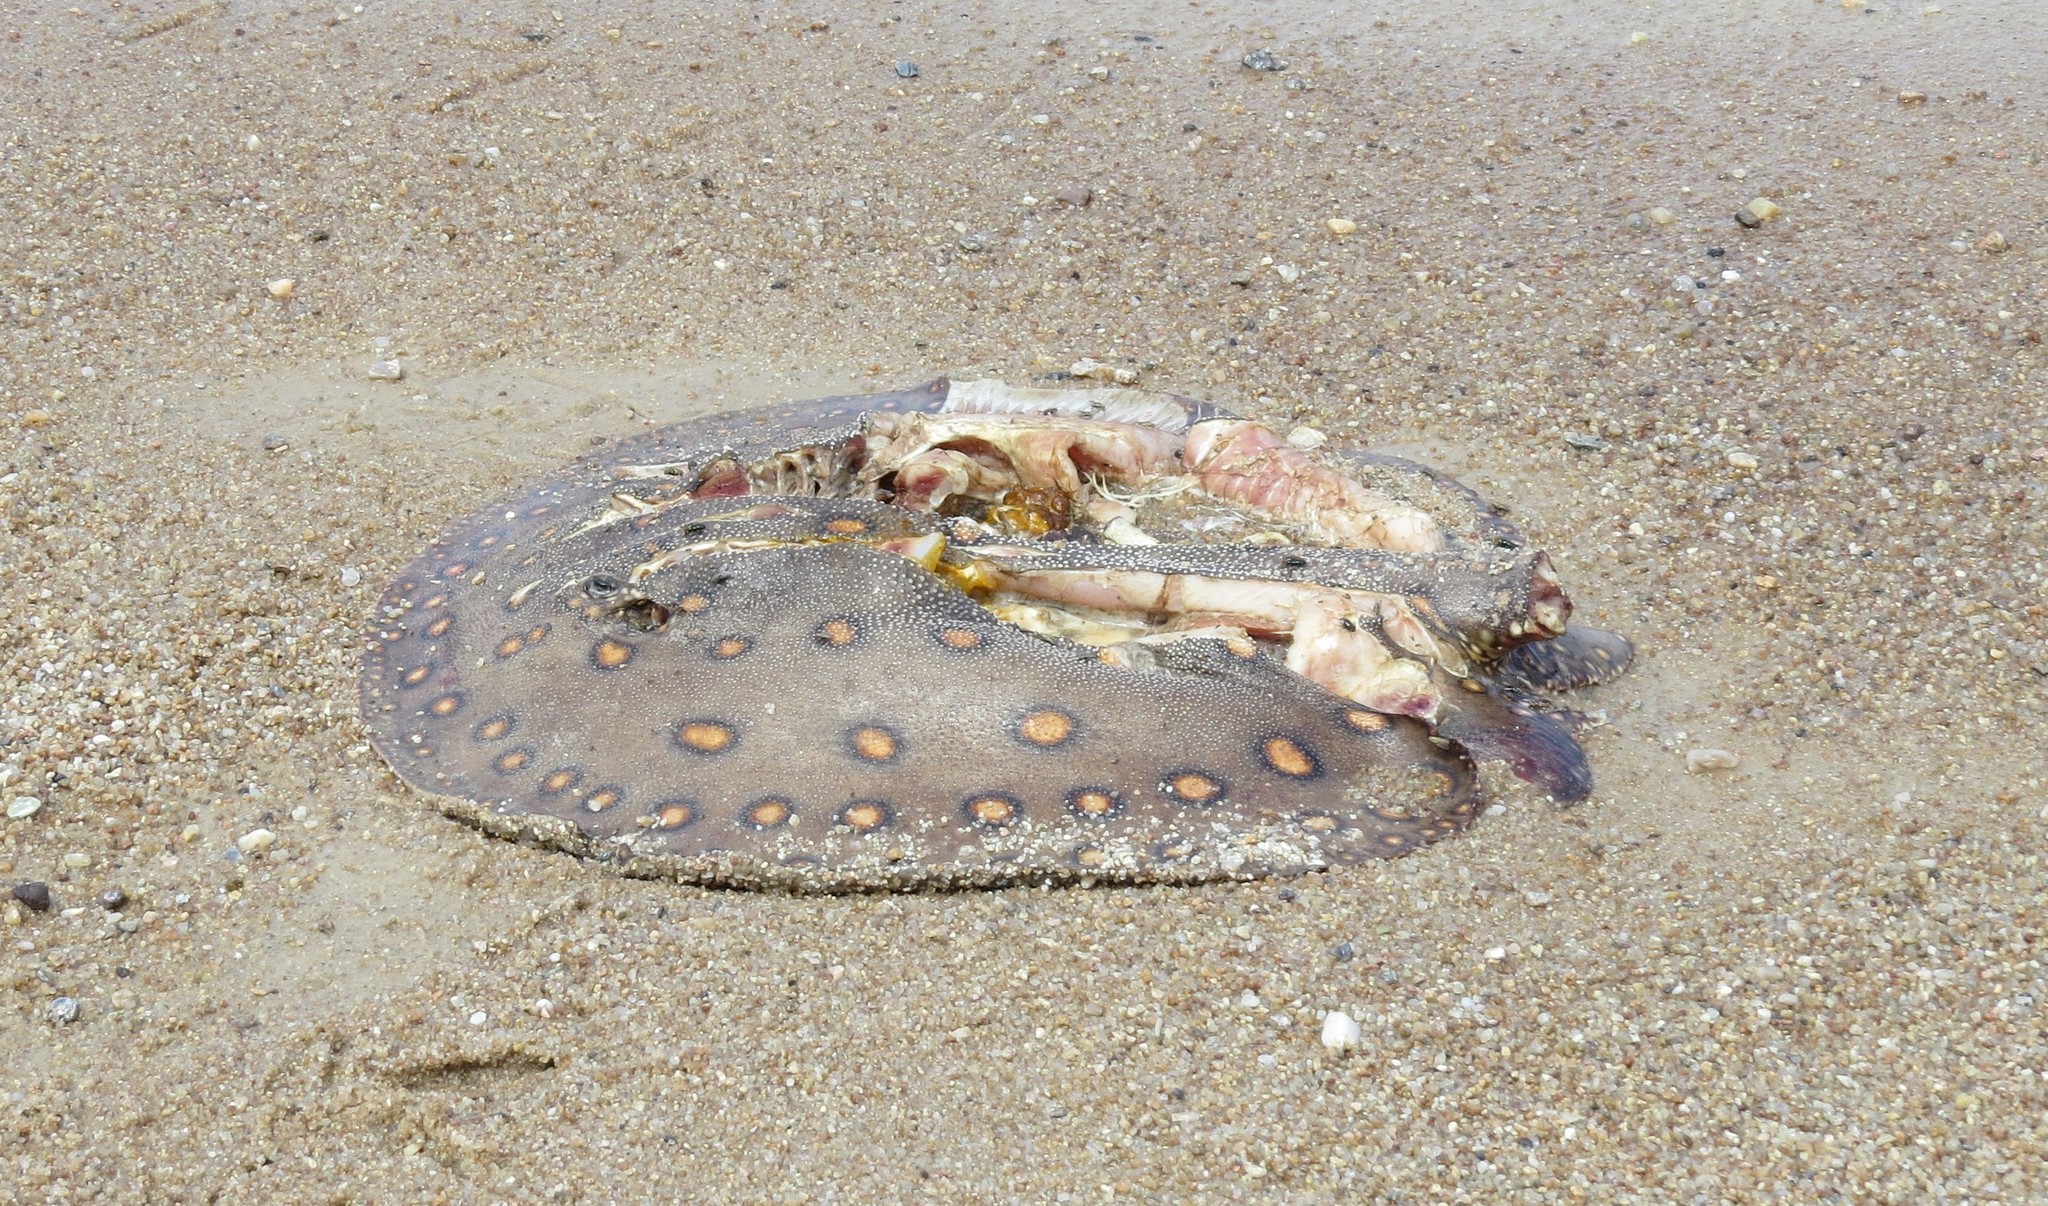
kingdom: Animalia
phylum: Chordata
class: Elasmobranchii
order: Myliobatiformes
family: Potamotrygonidae
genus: Potamotrygon
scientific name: Potamotrygon motoro
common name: South american freshwater stingray
